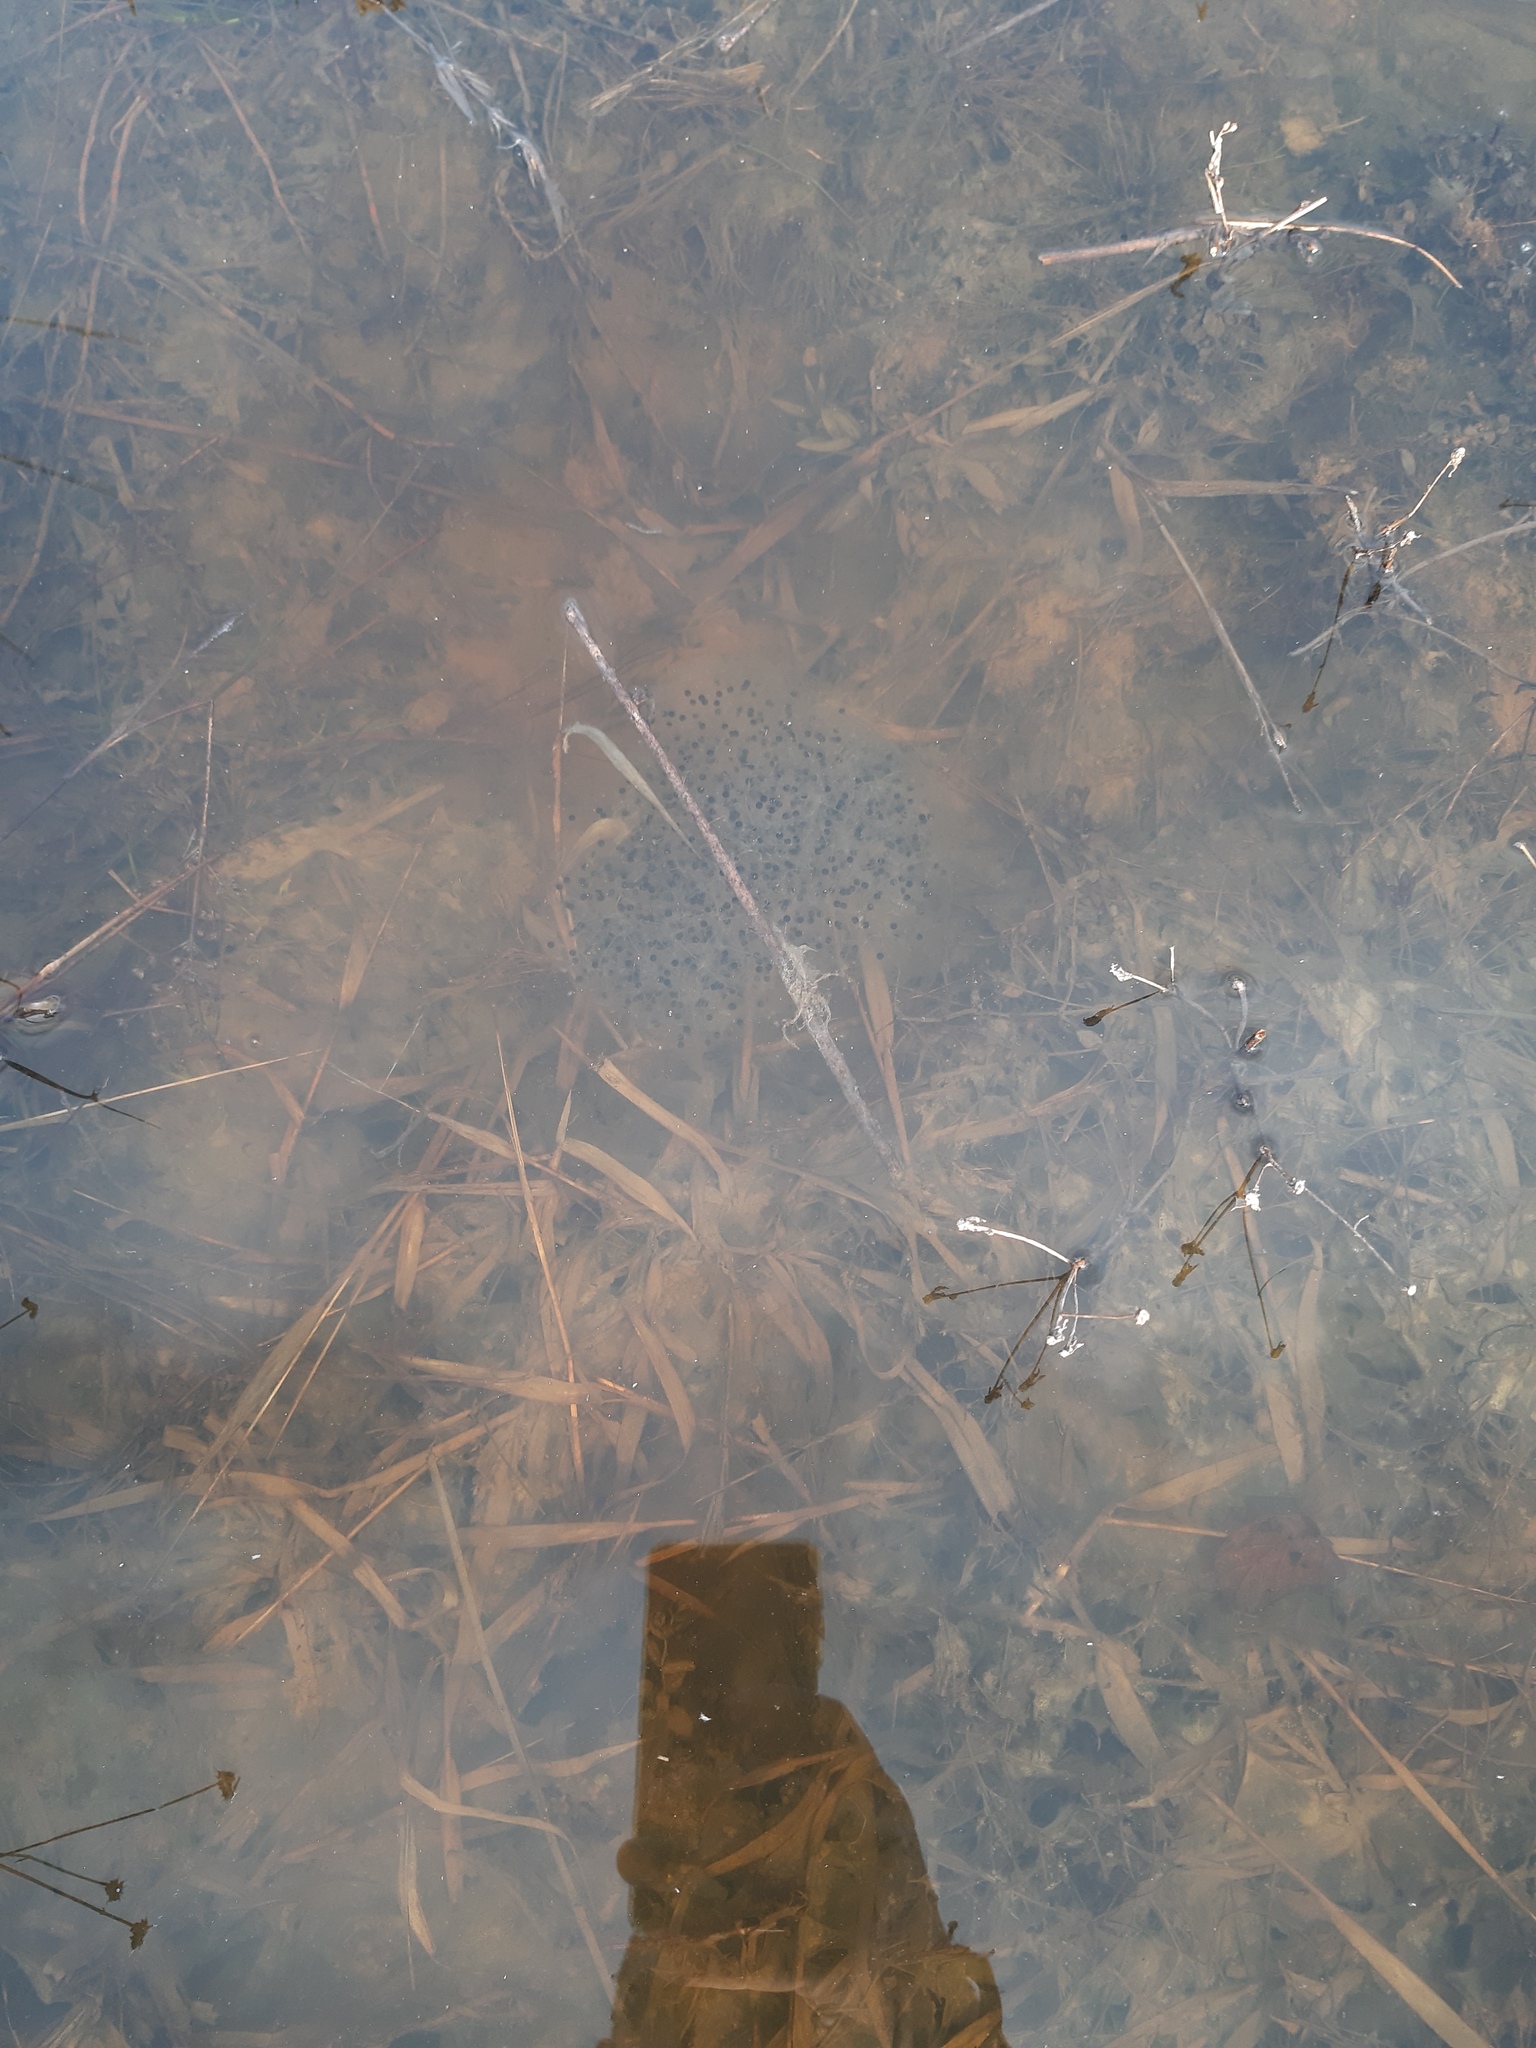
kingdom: Animalia
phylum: Chordata
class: Amphibia
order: Anura
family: Ranidae
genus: Rana
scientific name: Rana dalmatina
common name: Agile frog
